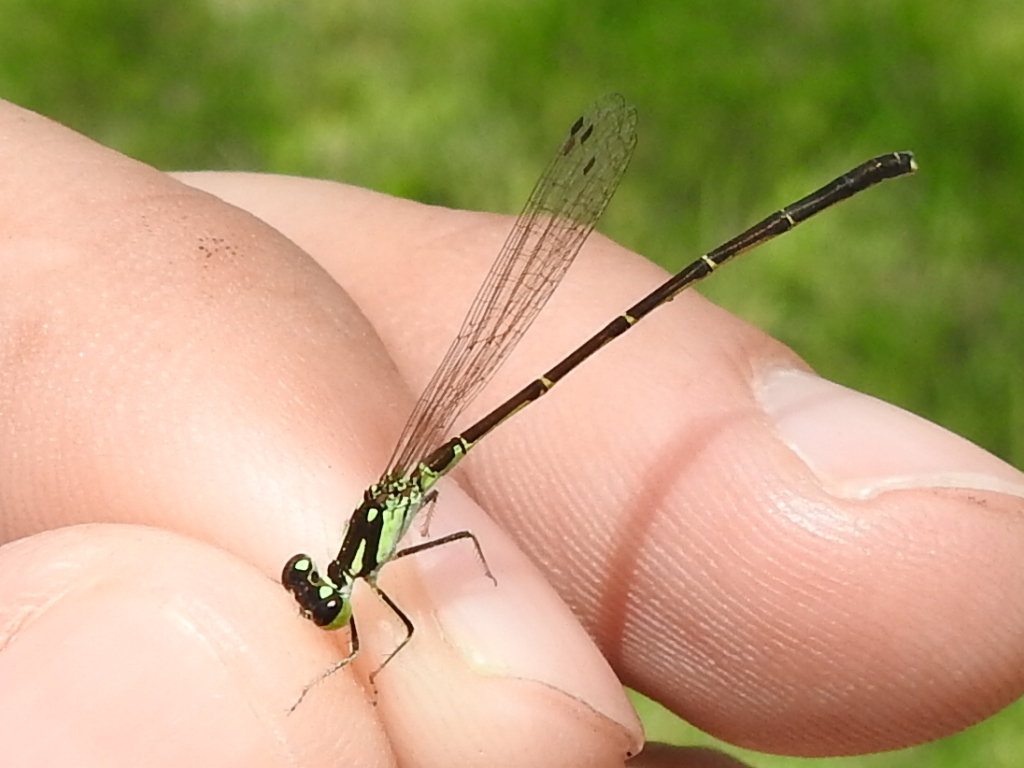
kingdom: Animalia
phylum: Arthropoda
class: Insecta
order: Odonata
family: Coenagrionidae
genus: Ischnura
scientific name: Ischnura posita
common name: Fragile forktail
